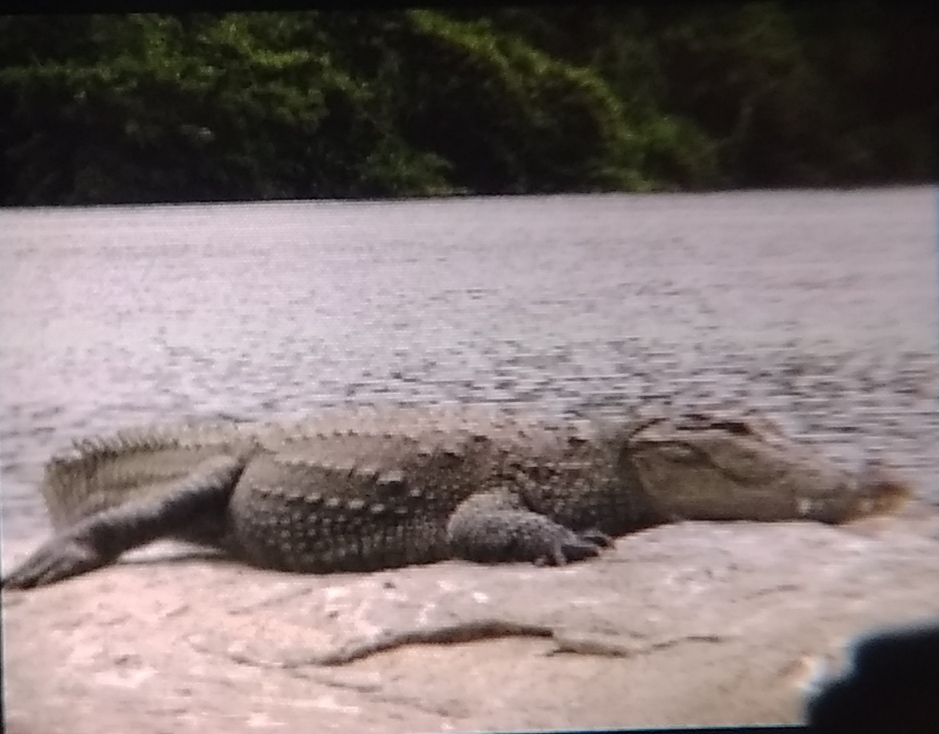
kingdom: Animalia
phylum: Chordata
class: Crocodylia
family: Crocodylidae
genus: Crocodylus
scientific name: Crocodylus palustris
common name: Mugger crocodile
